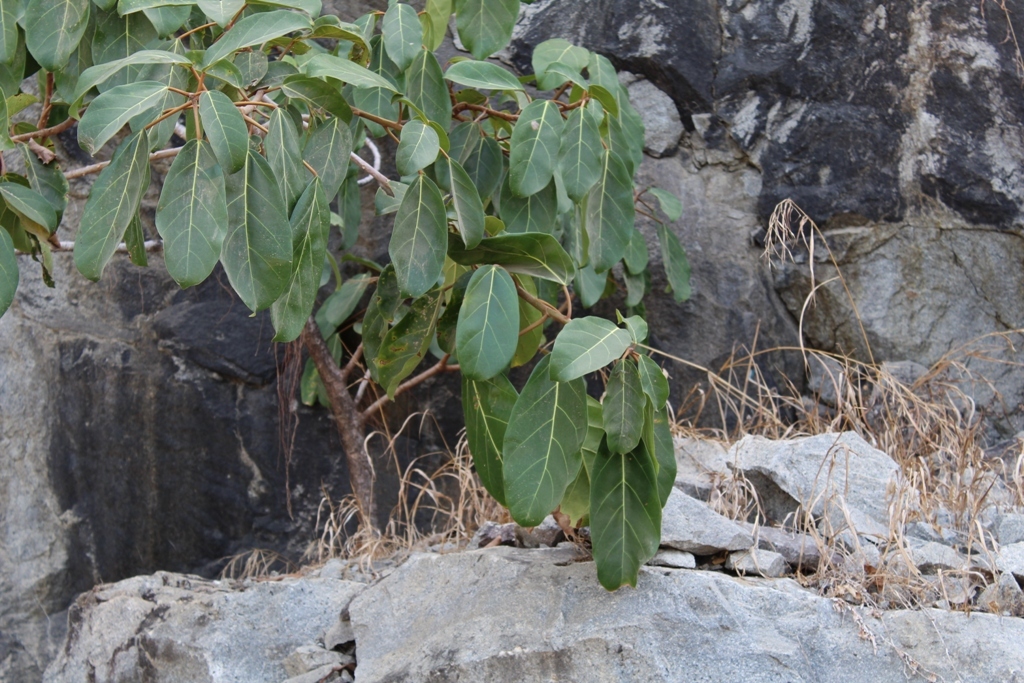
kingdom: Plantae
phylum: Tracheophyta
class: Magnoliopsida
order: Rosales
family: Moraceae
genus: Ficus
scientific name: Ficus lutea
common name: Giant-leaved fig
